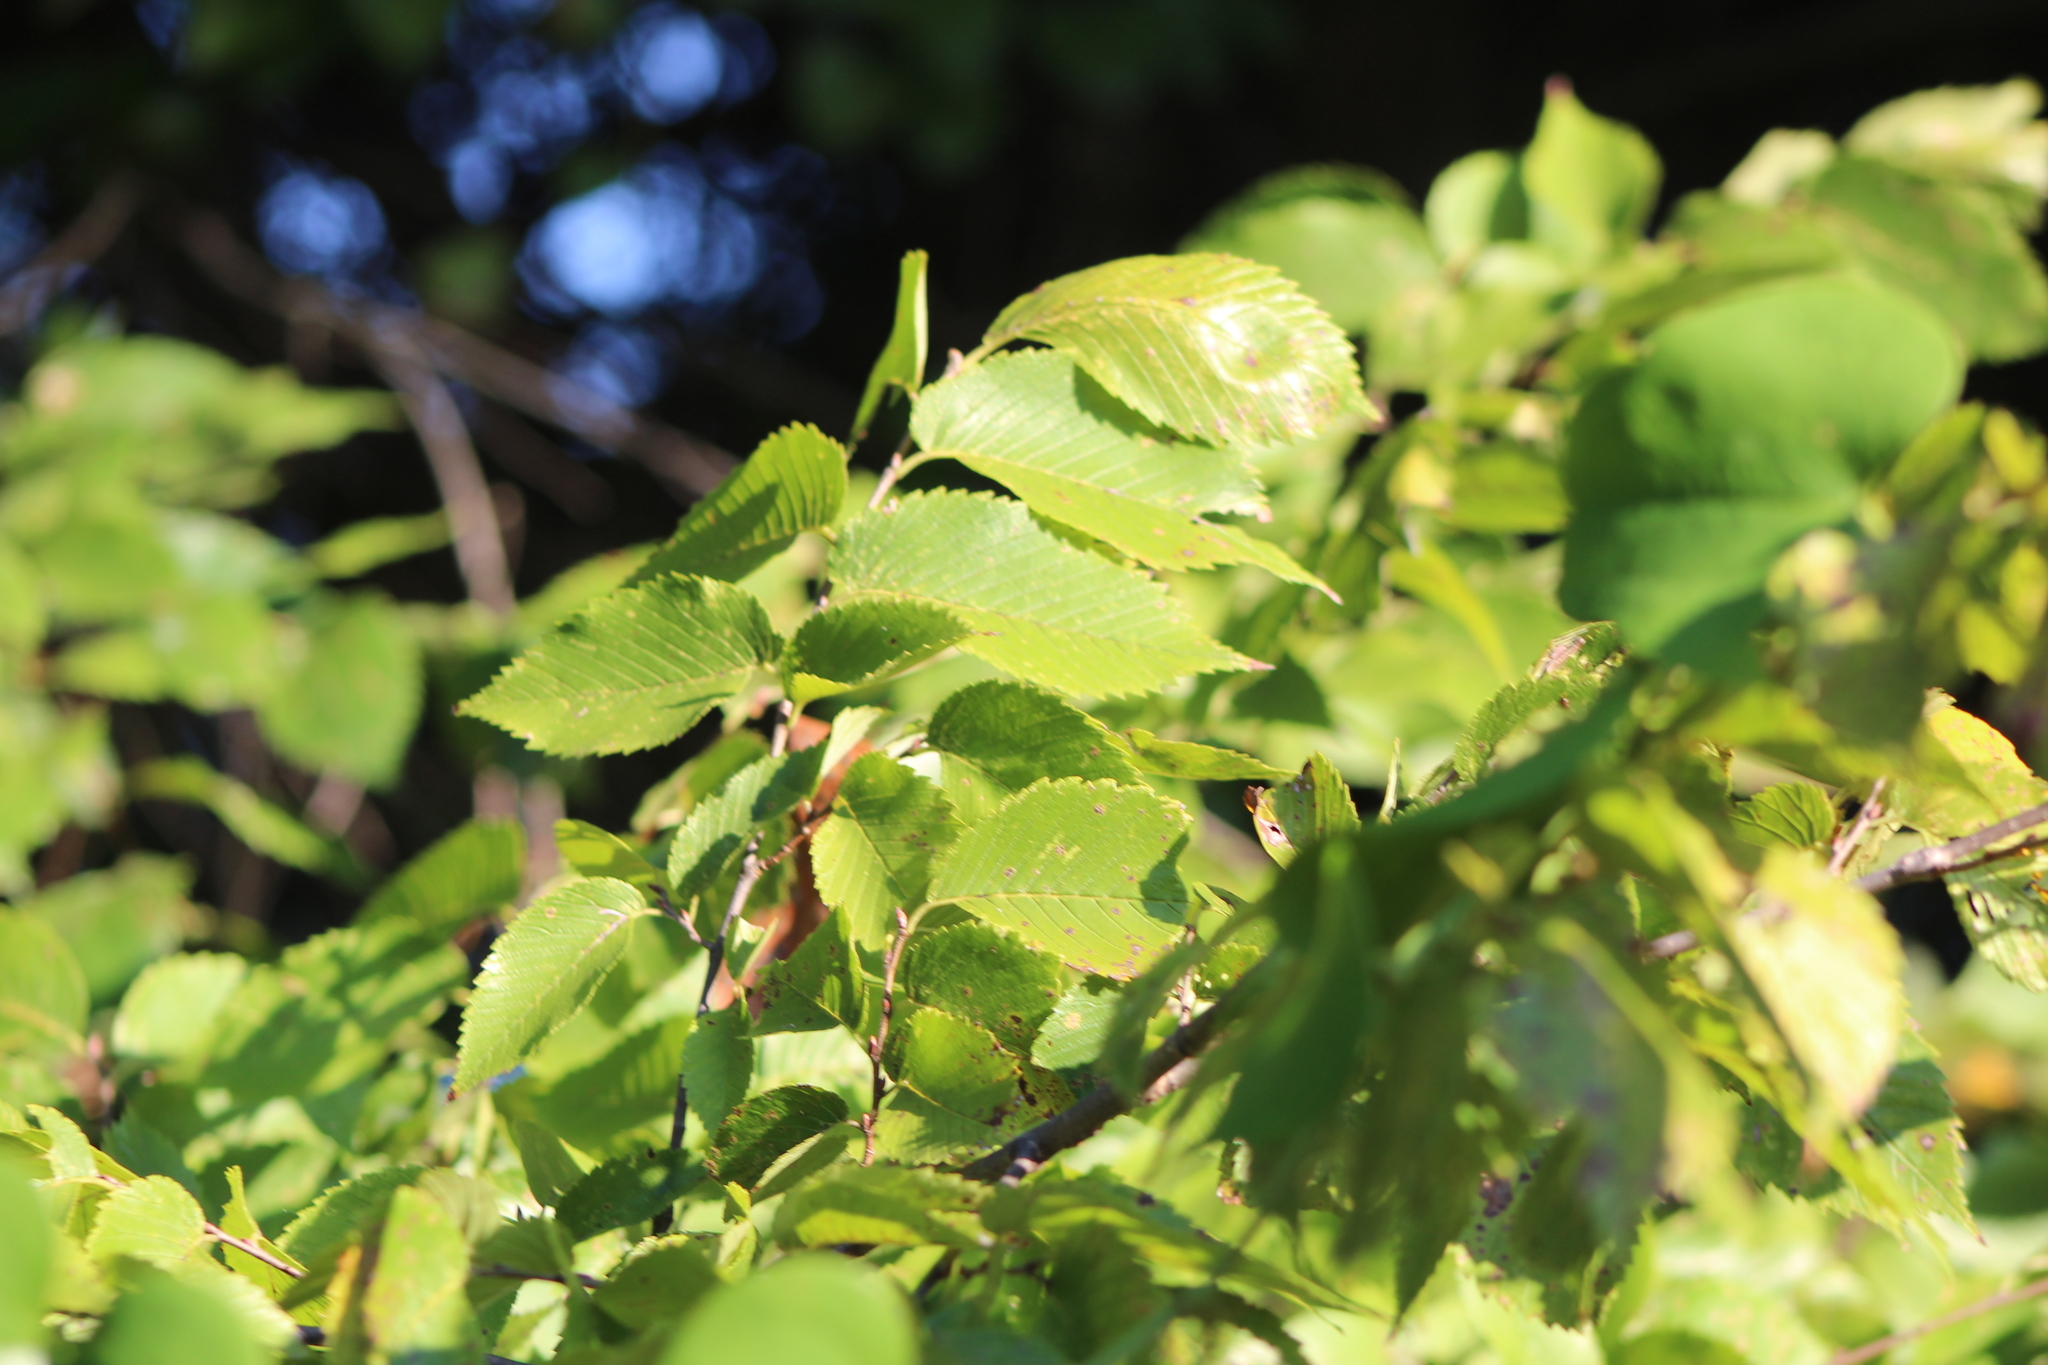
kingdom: Plantae
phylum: Tracheophyta
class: Magnoliopsida
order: Rosales
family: Ulmaceae
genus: Ulmus
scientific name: Ulmus americana
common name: American elm
